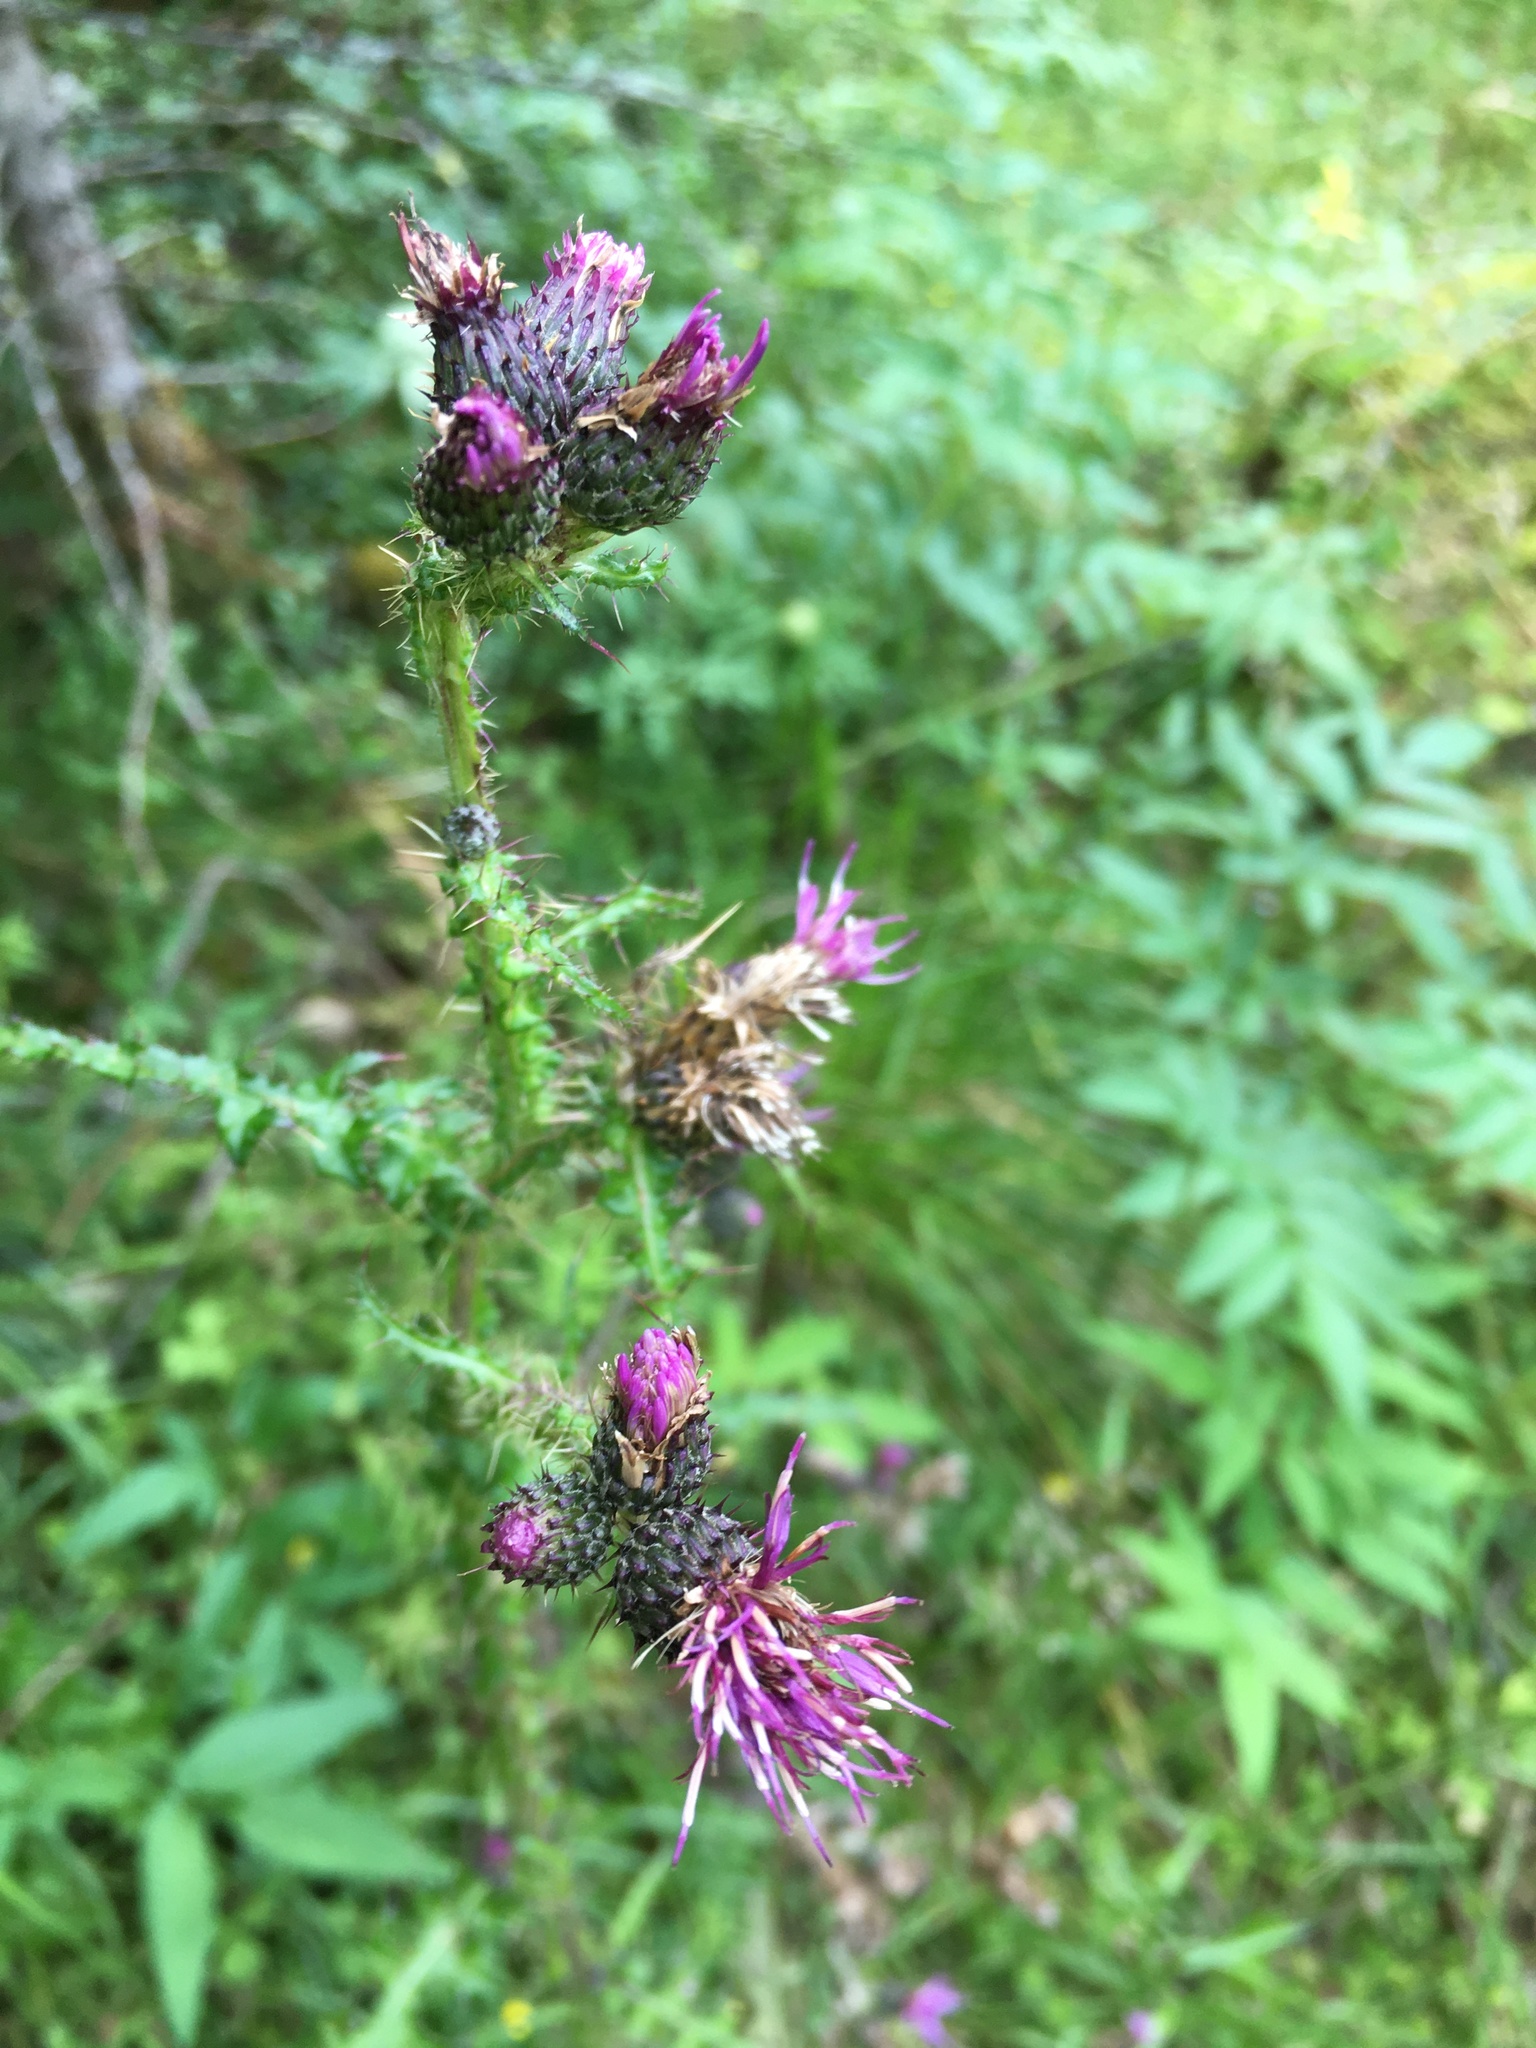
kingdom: Plantae
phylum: Tracheophyta
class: Magnoliopsida
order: Asterales
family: Asteraceae
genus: Cirsium
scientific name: Cirsium palustre
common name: Marsh thistle
